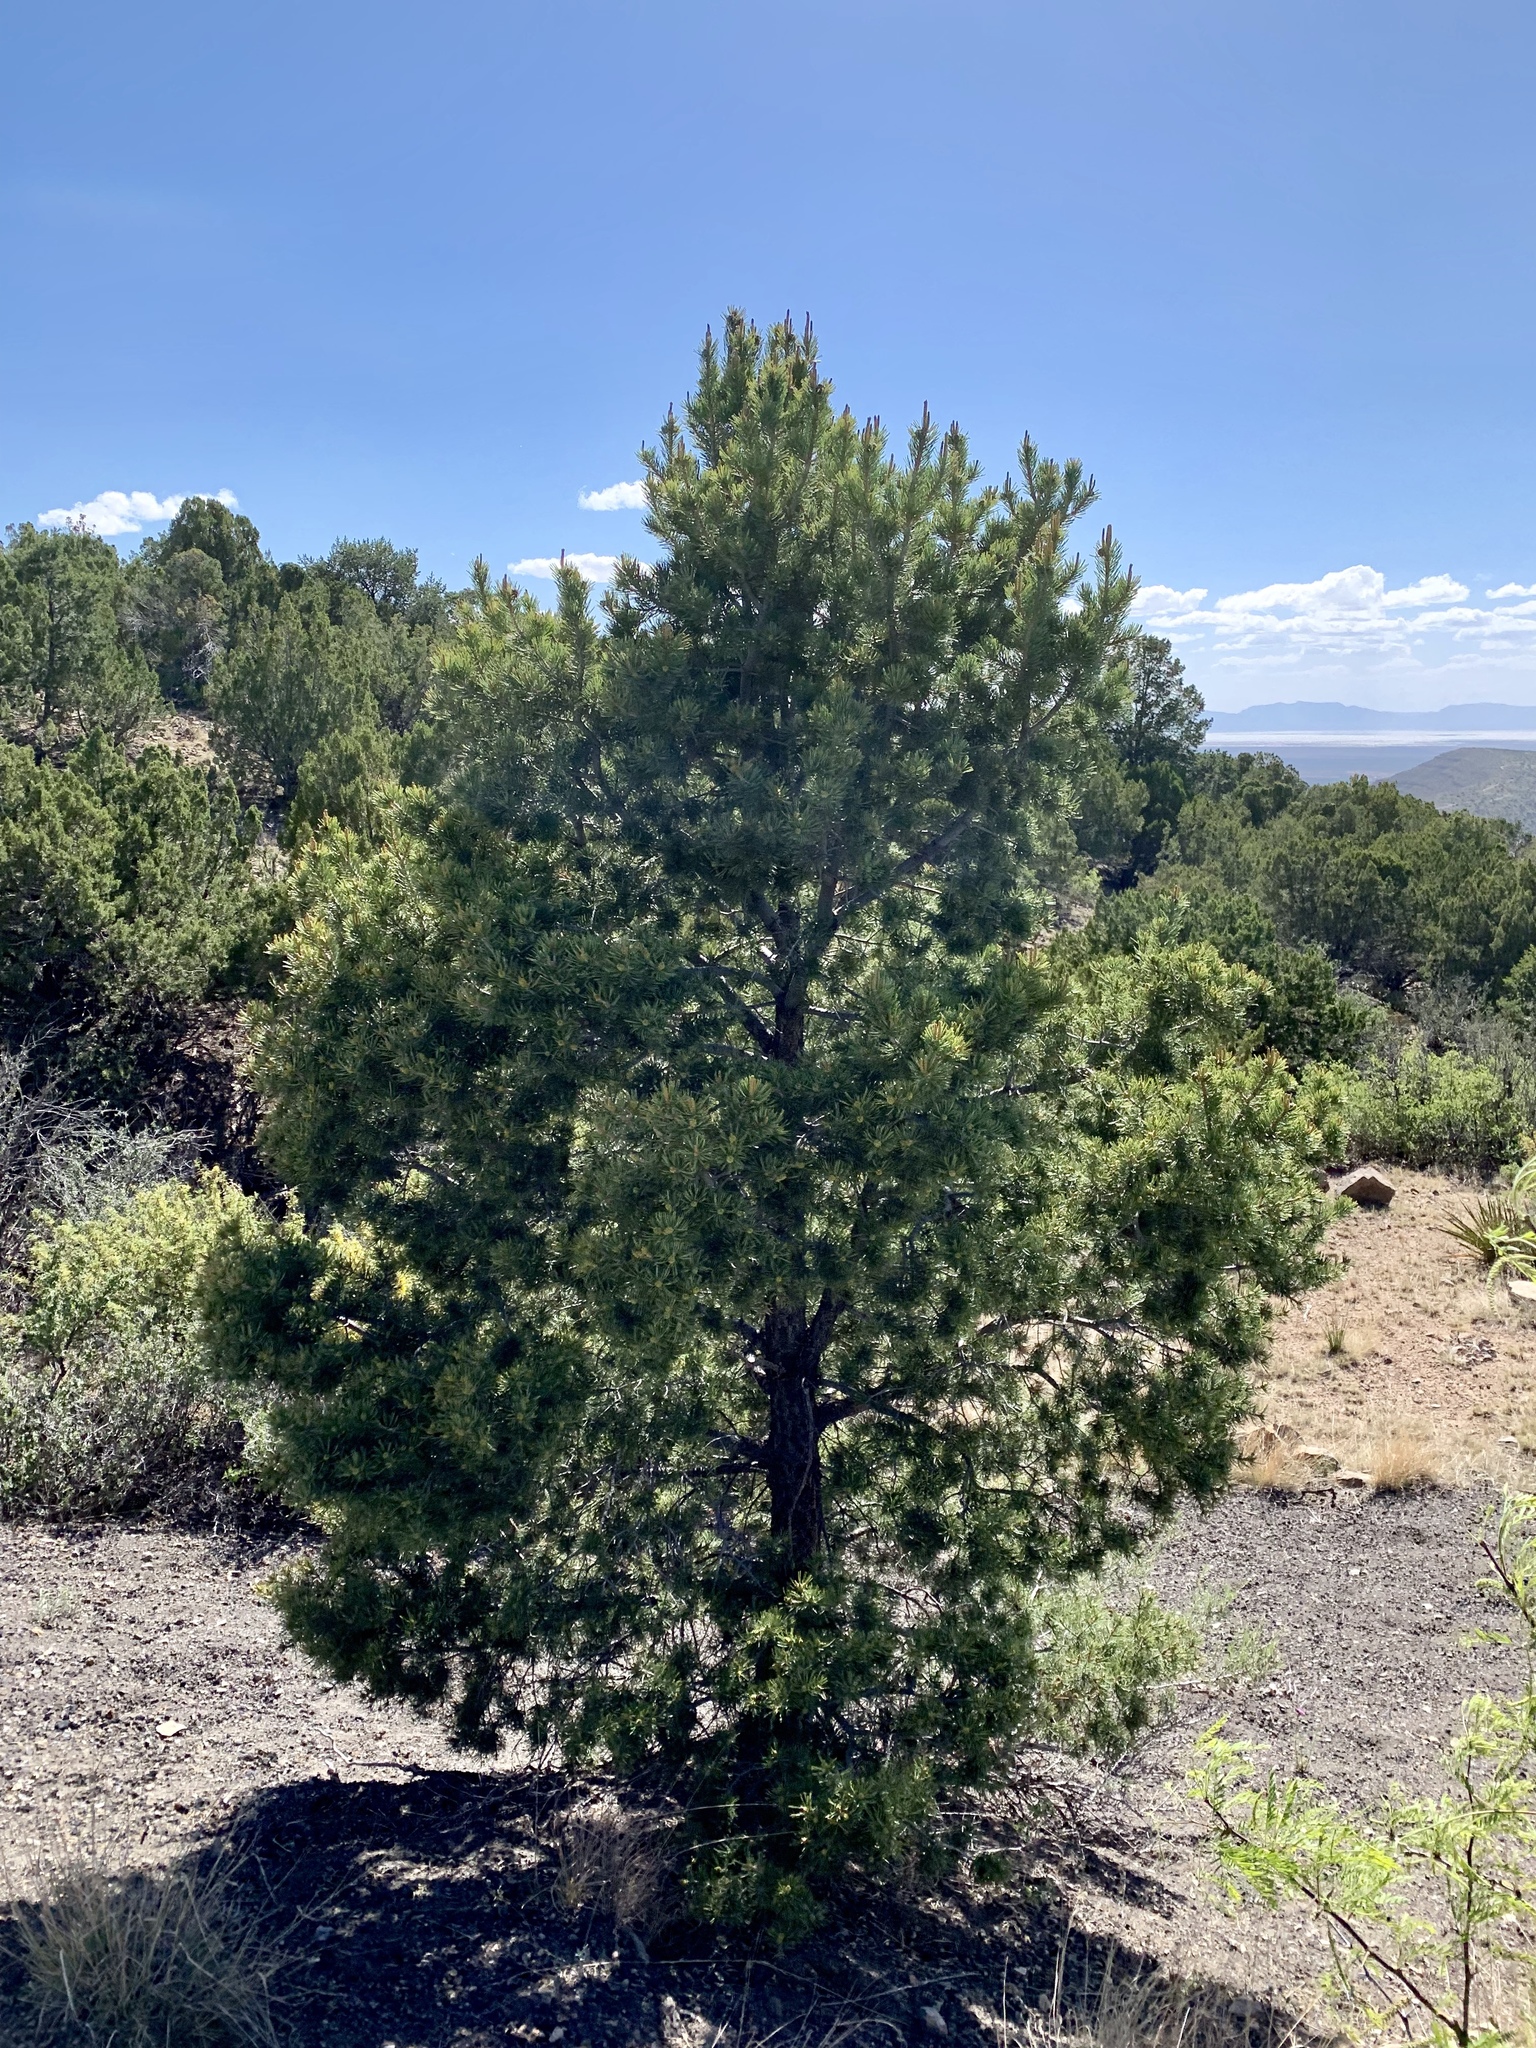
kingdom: Plantae
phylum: Tracheophyta
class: Pinopsida
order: Pinales
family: Pinaceae
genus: Pinus
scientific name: Pinus edulis
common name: Colorado pinyon
